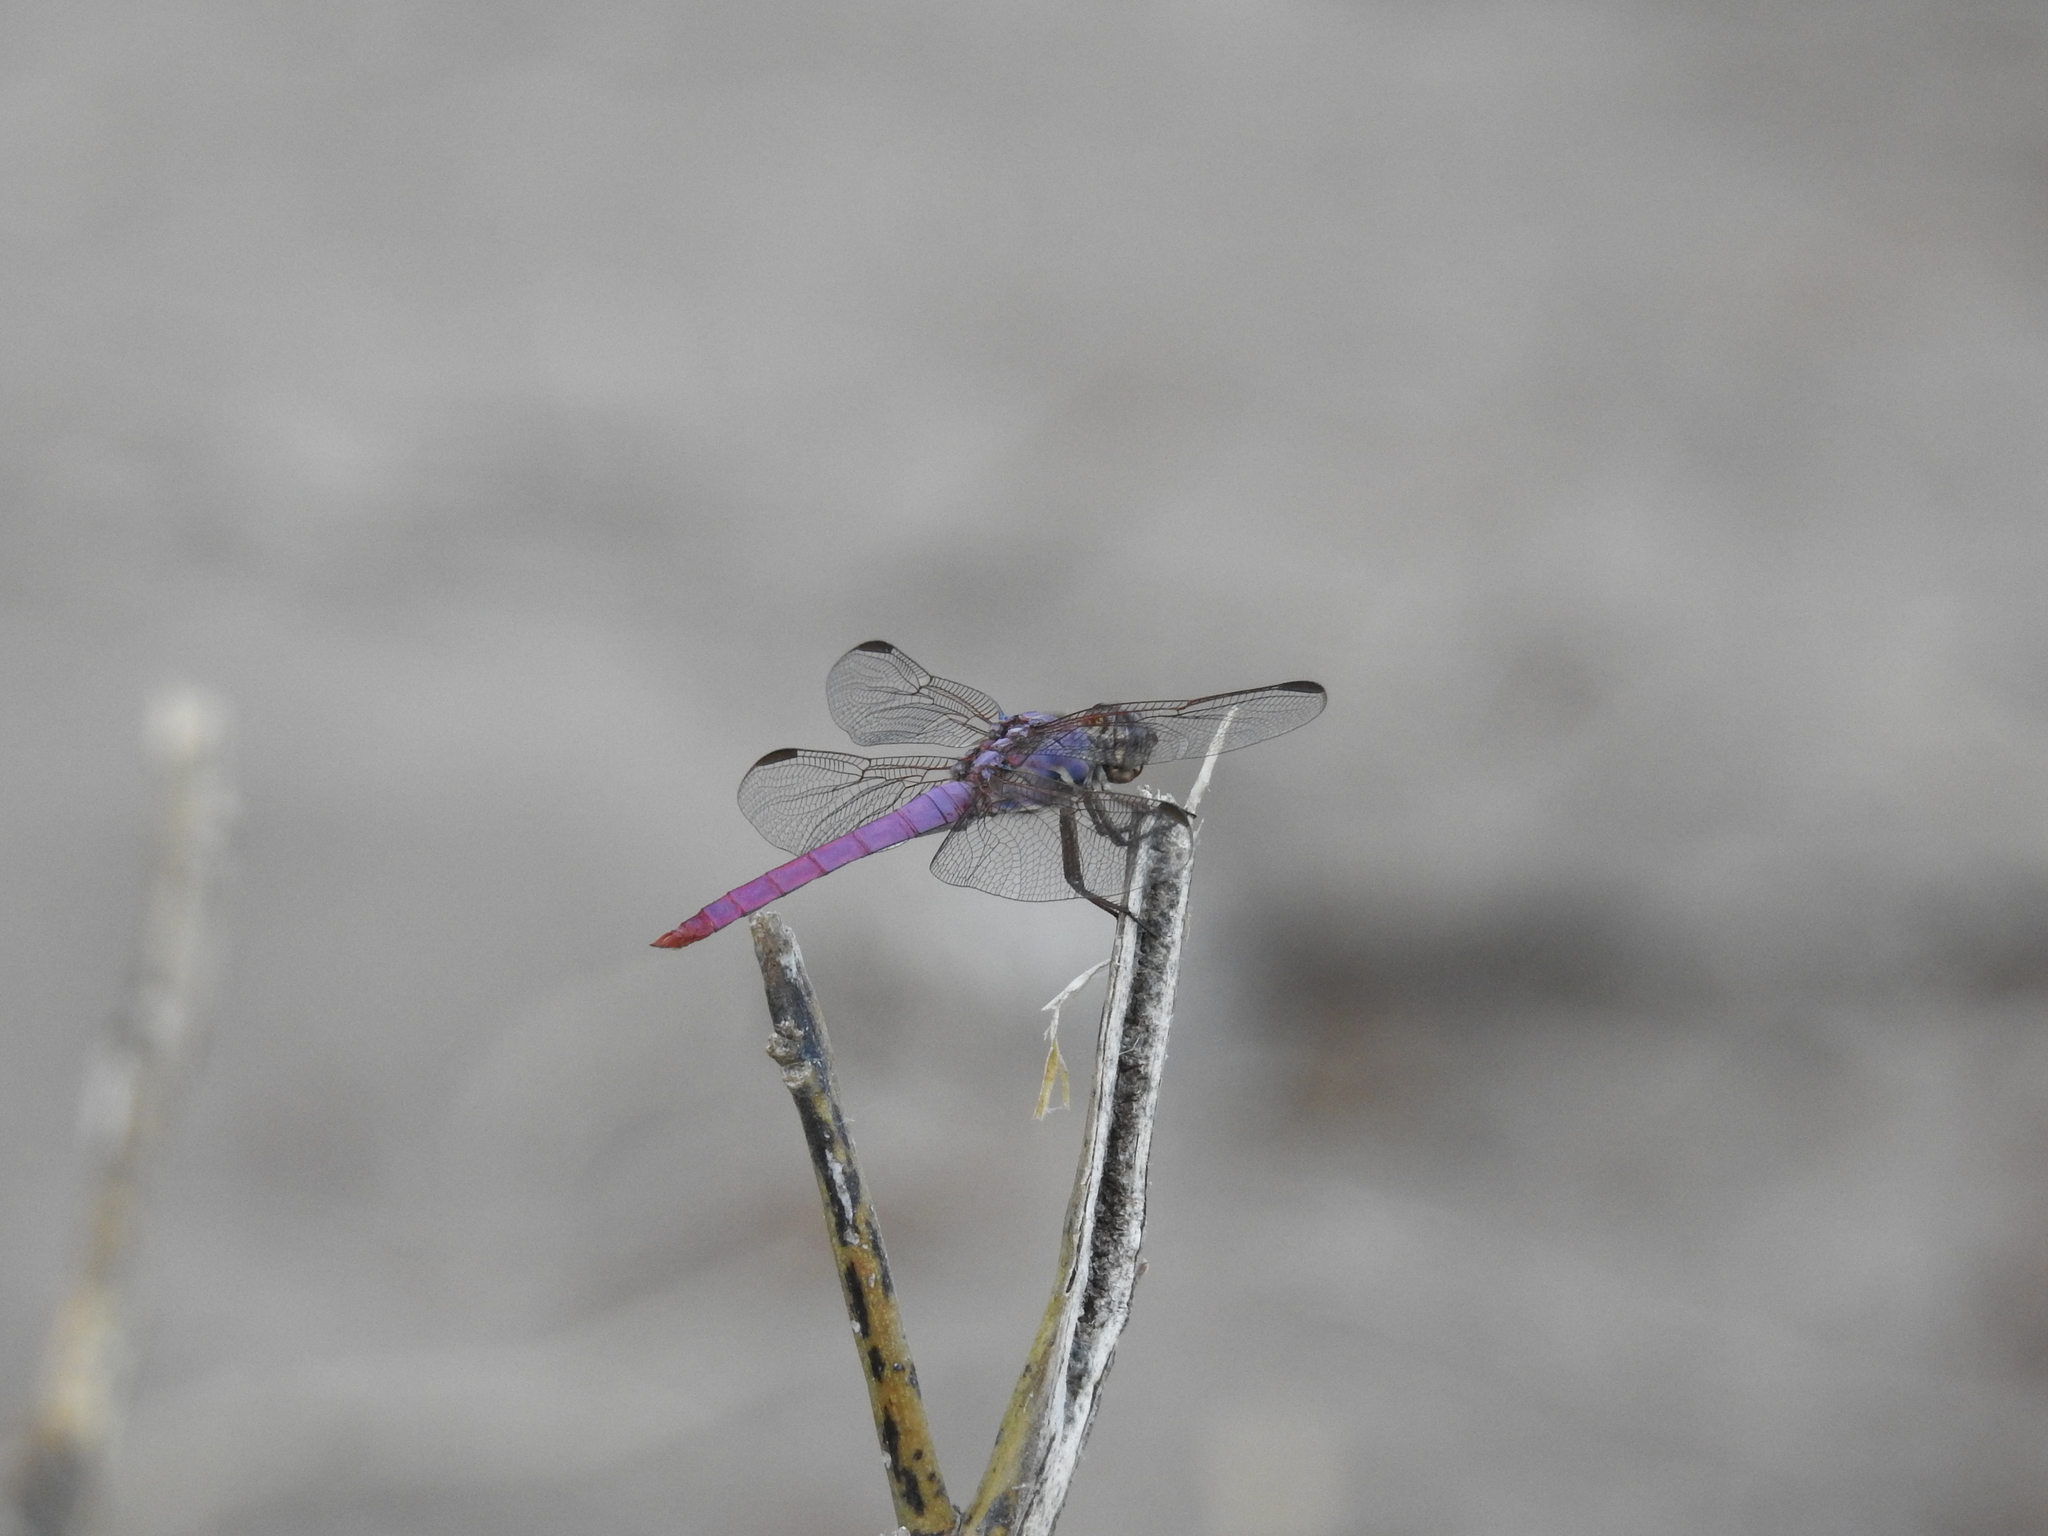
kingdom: Animalia
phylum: Arthropoda
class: Insecta
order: Odonata
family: Libellulidae
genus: Orthemis
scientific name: Orthemis ferruginea
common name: Roseate skimmer
